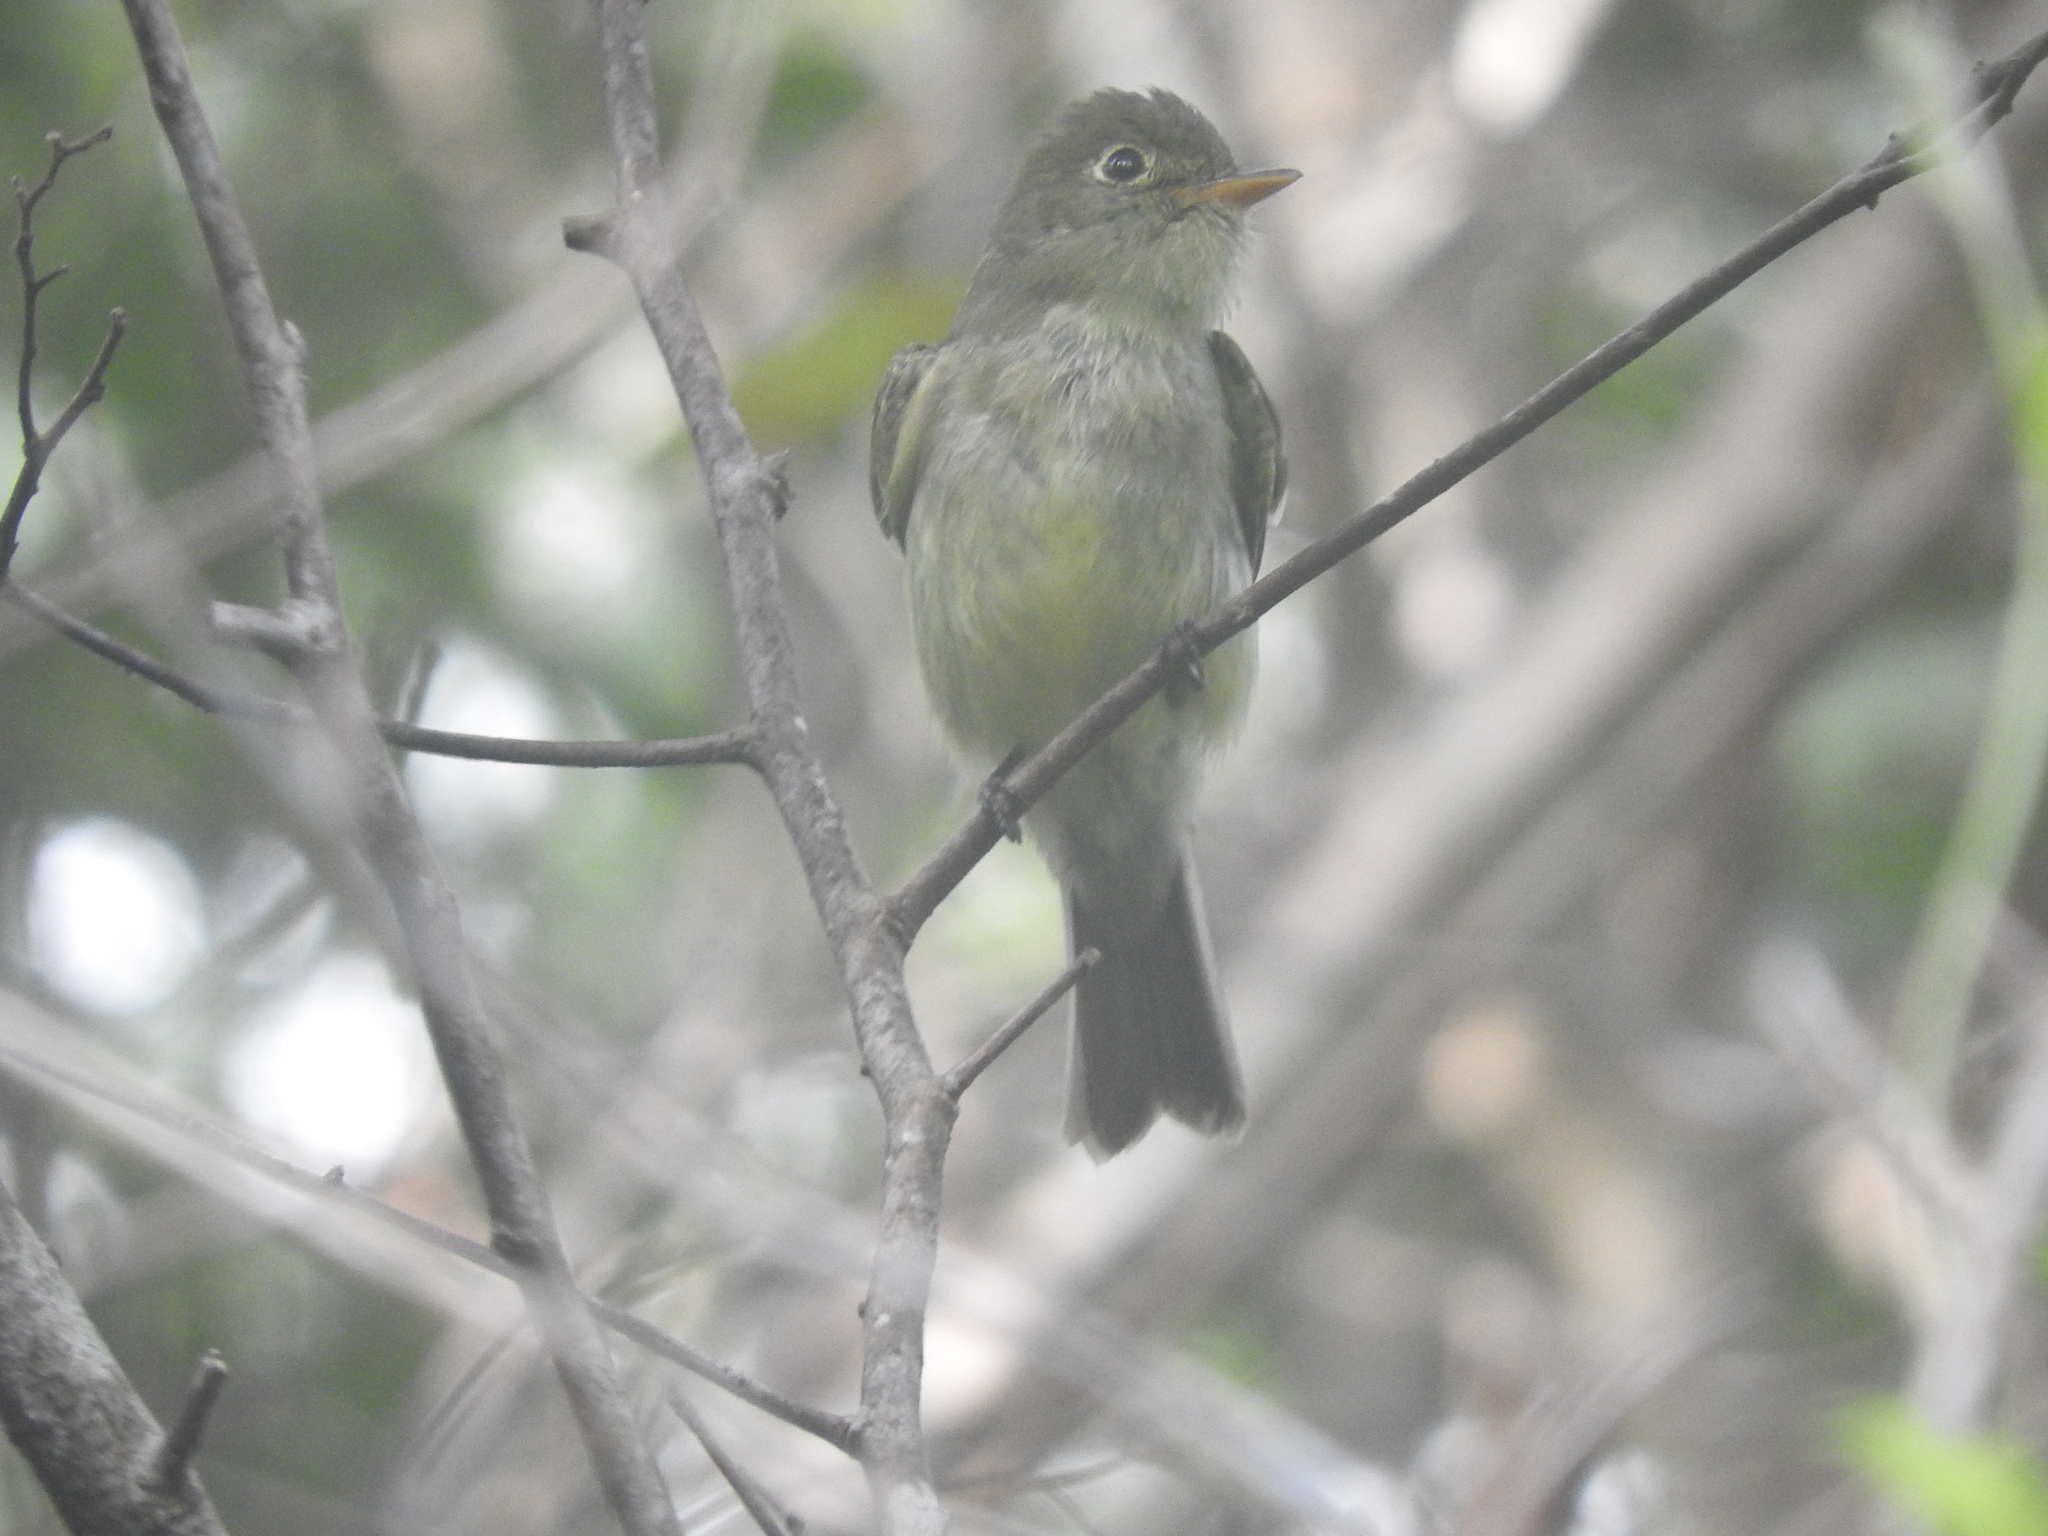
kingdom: Animalia
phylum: Chordata
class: Aves
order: Passeriformes
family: Tyrannidae
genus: Empidonax
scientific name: Empidonax flaviventris
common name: Yellow-bellied flycatcher
